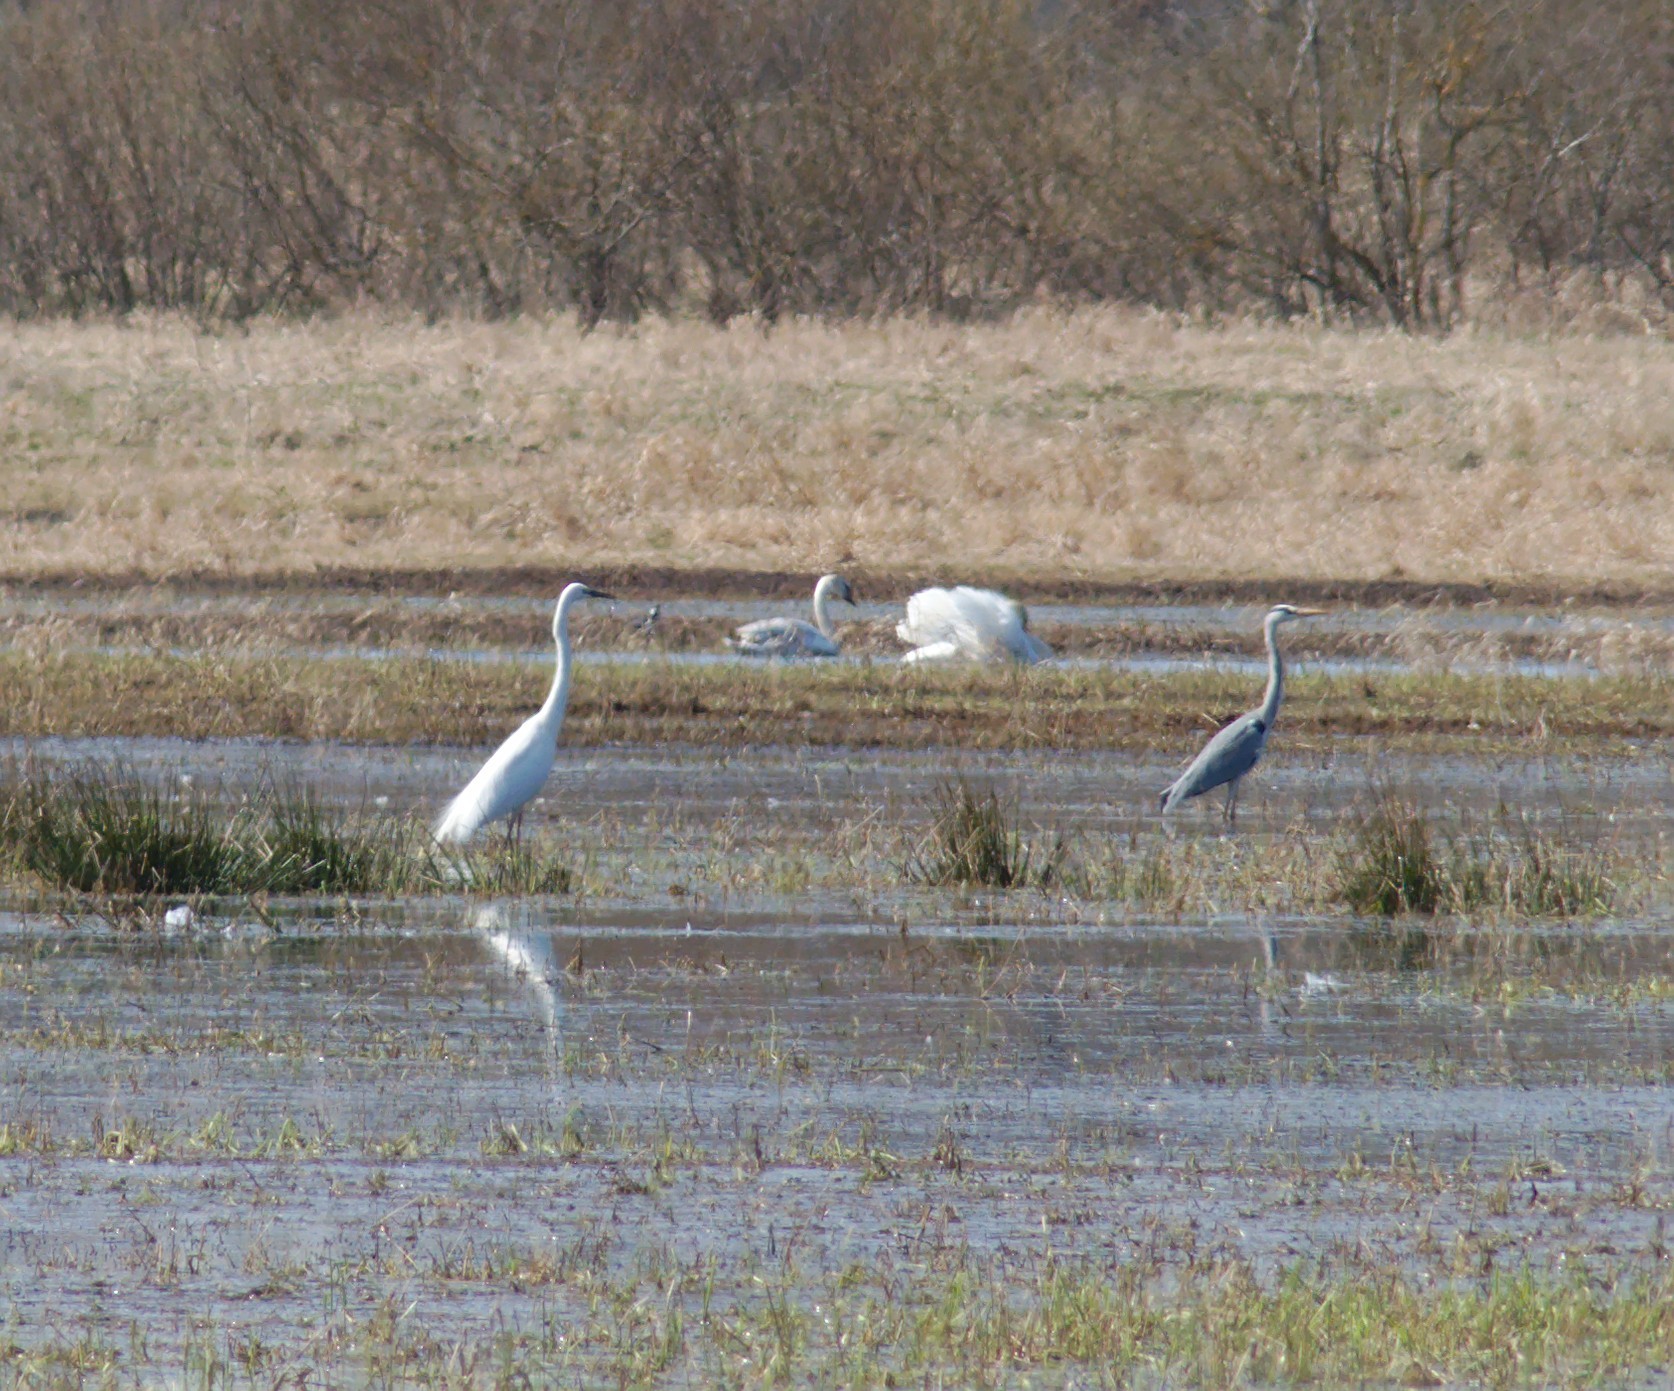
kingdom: Animalia
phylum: Chordata
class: Aves
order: Pelecaniformes
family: Ardeidae
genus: Ardea
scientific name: Ardea cinerea
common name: Grey heron
